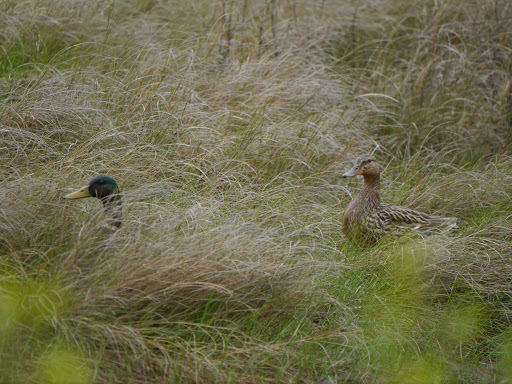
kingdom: Animalia
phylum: Chordata
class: Aves
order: Anseriformes
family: Anatidae
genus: Anas
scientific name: Anas platyrhynchos
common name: Mallard
